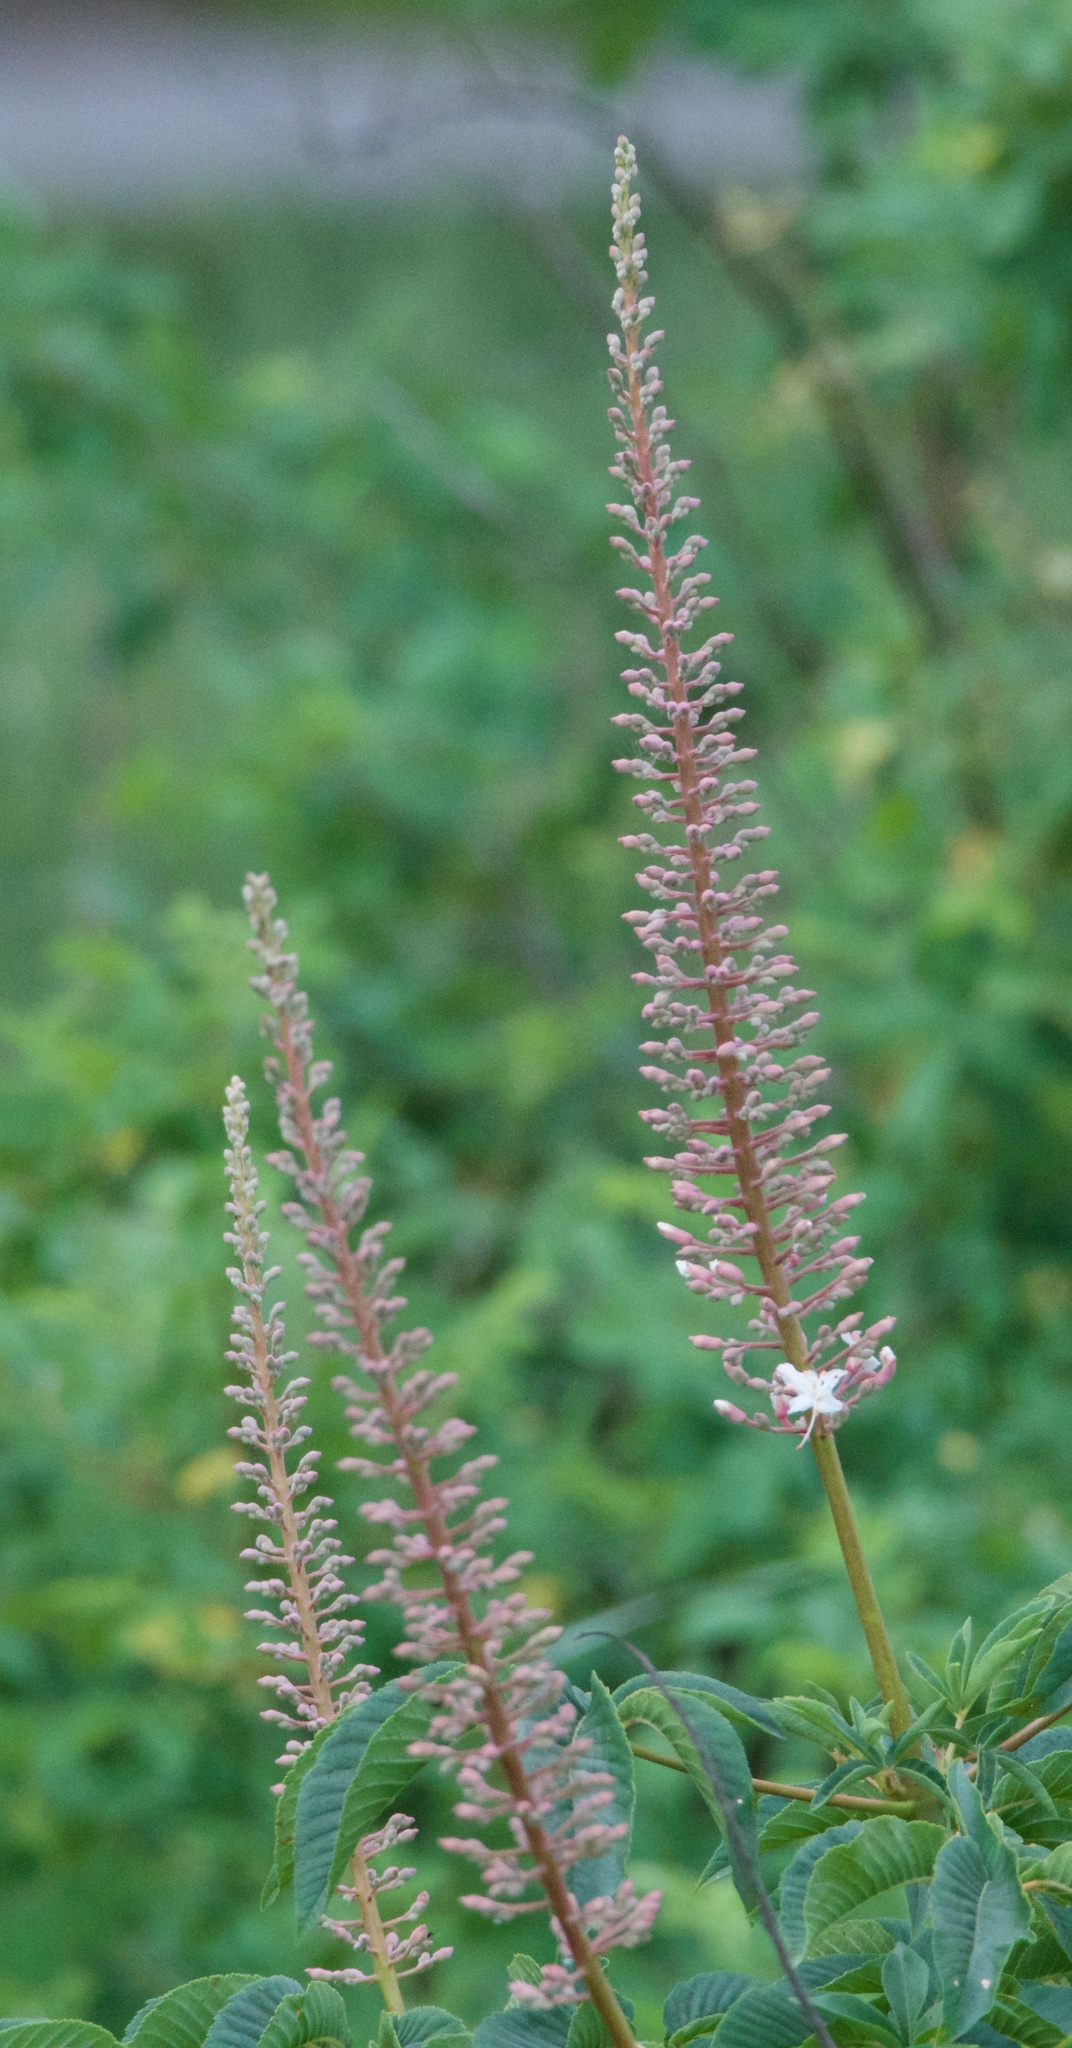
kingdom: Plantae
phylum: Tracheophyta
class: Magnoliopsida
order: Sapindales
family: Sapindaceae
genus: Aesculus
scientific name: Aesculus californica
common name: California buckeye
